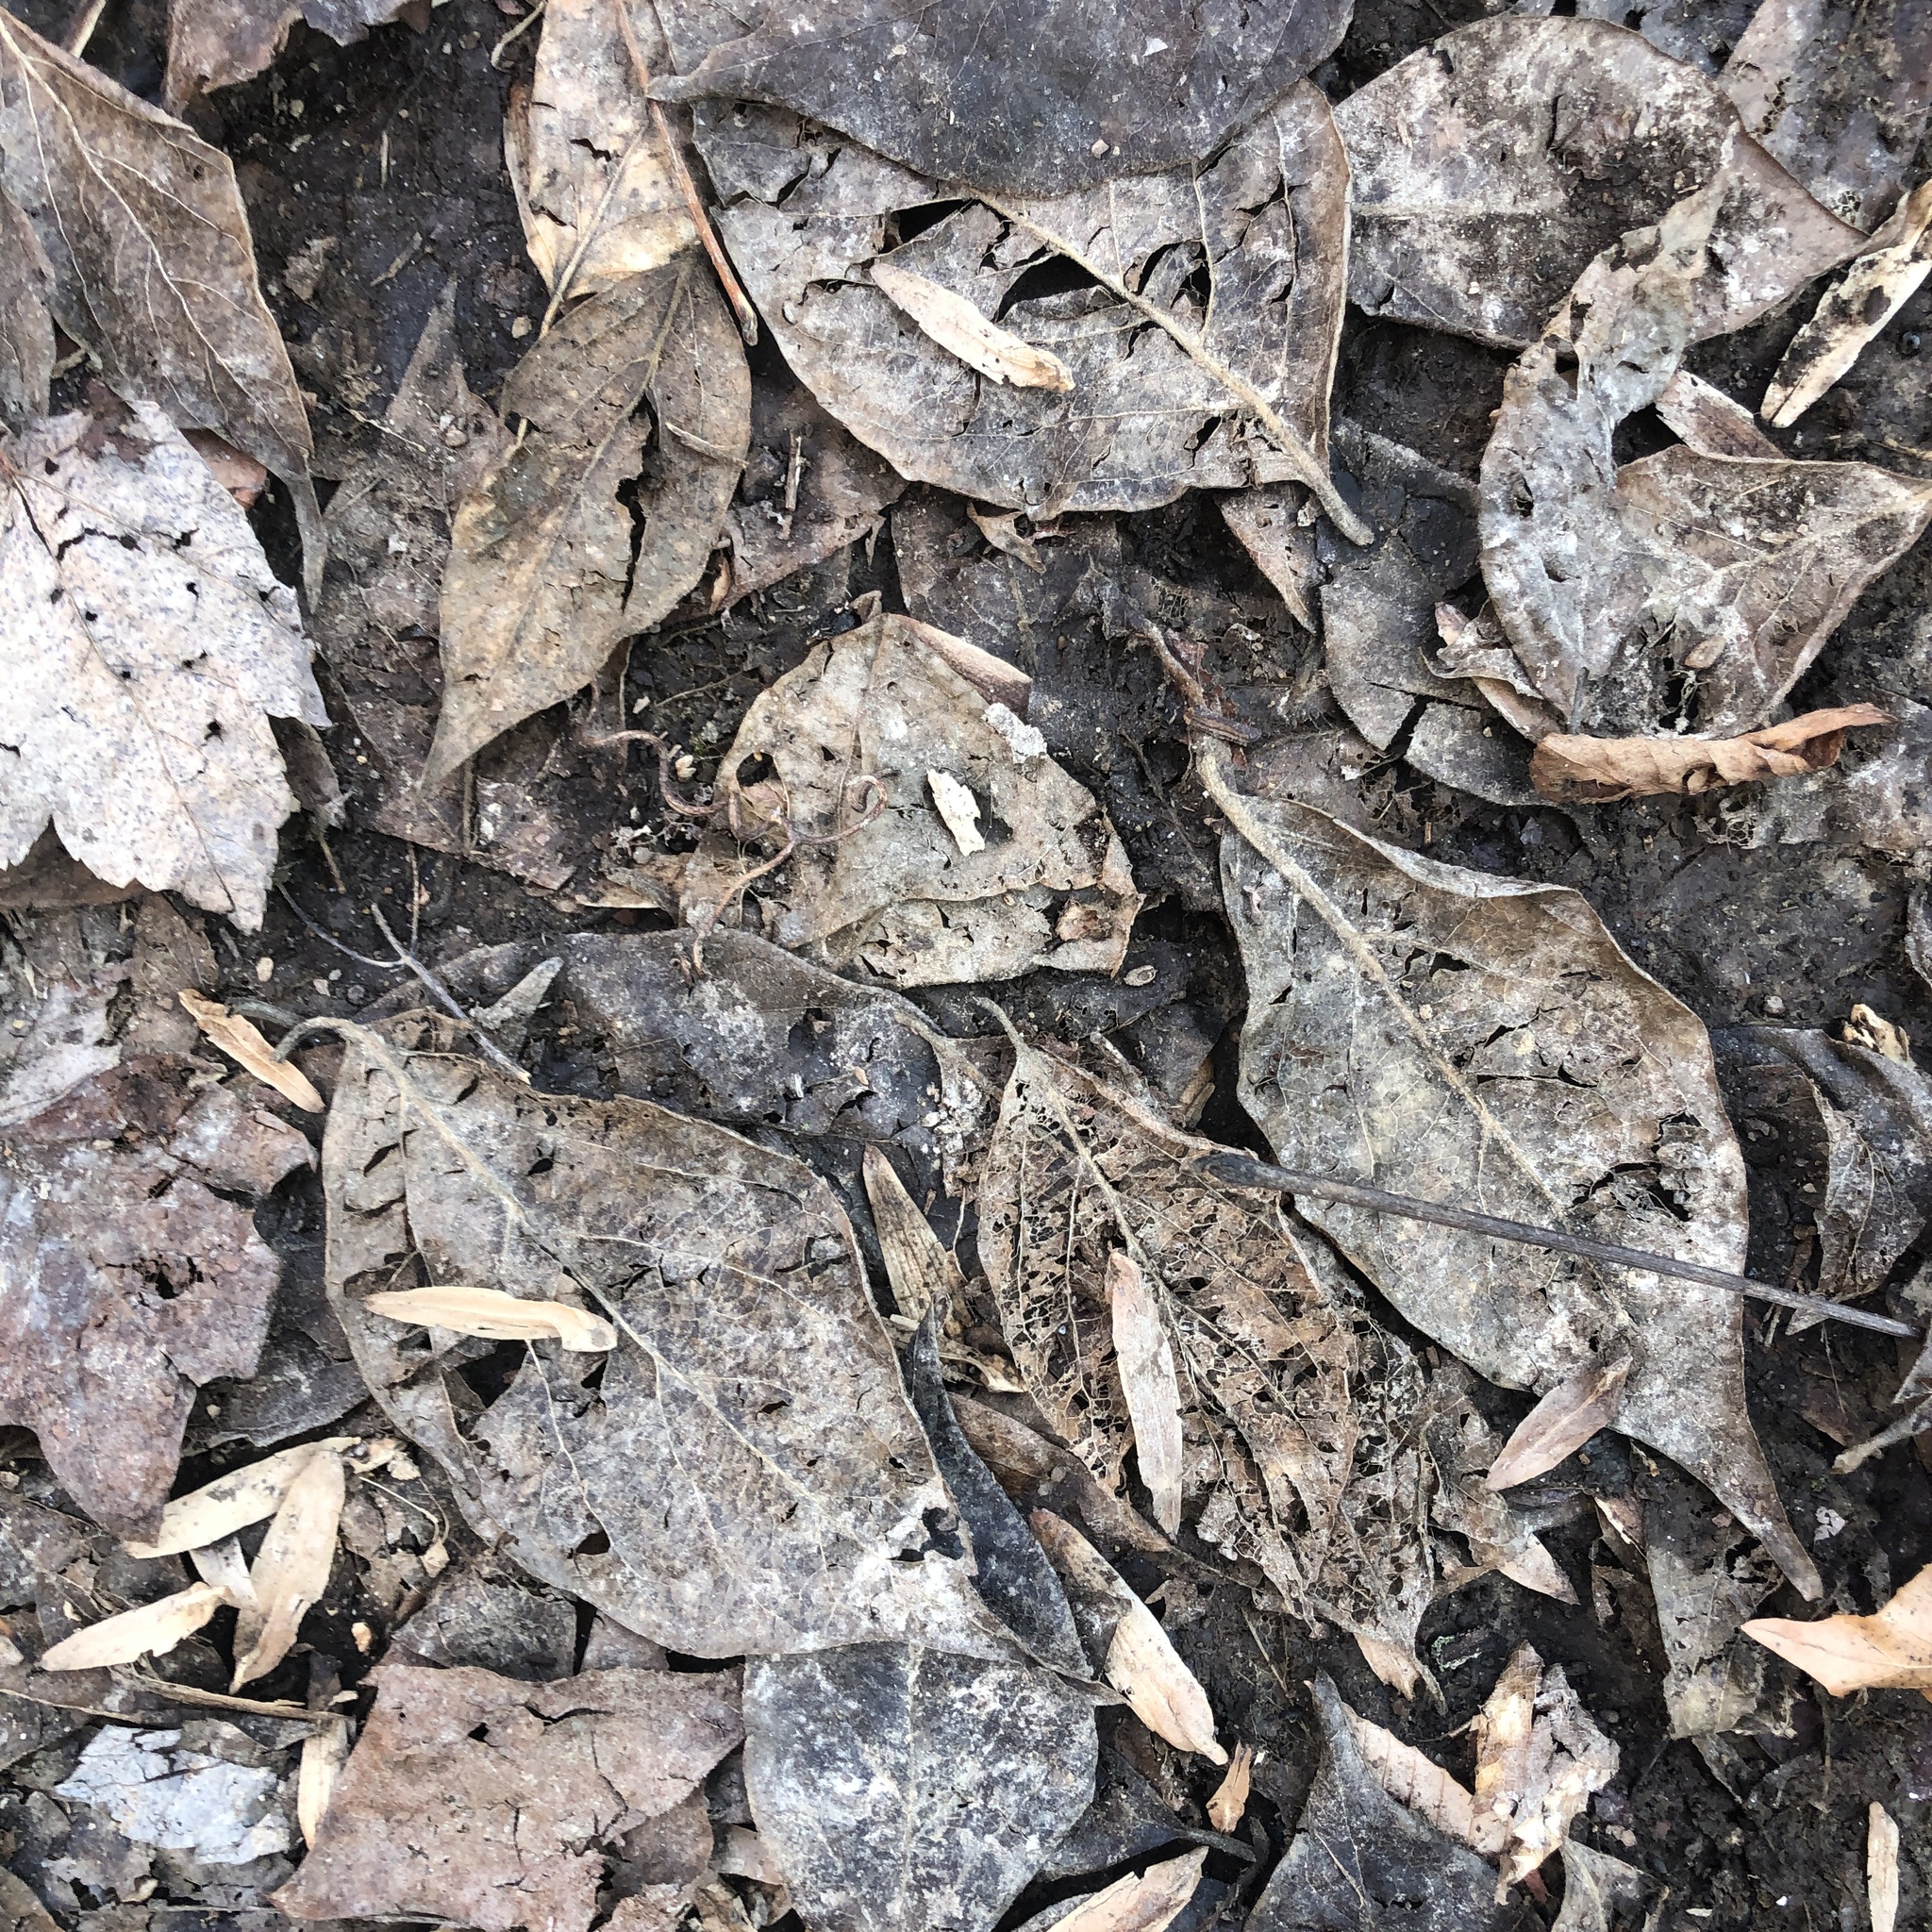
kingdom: Plantae
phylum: Tracheophyta
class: Magnoliopsida
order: Dipsacales
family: Caprifoliaceae
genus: Lonicera
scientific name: Lonicera maackii
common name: Amur honeysuckle
